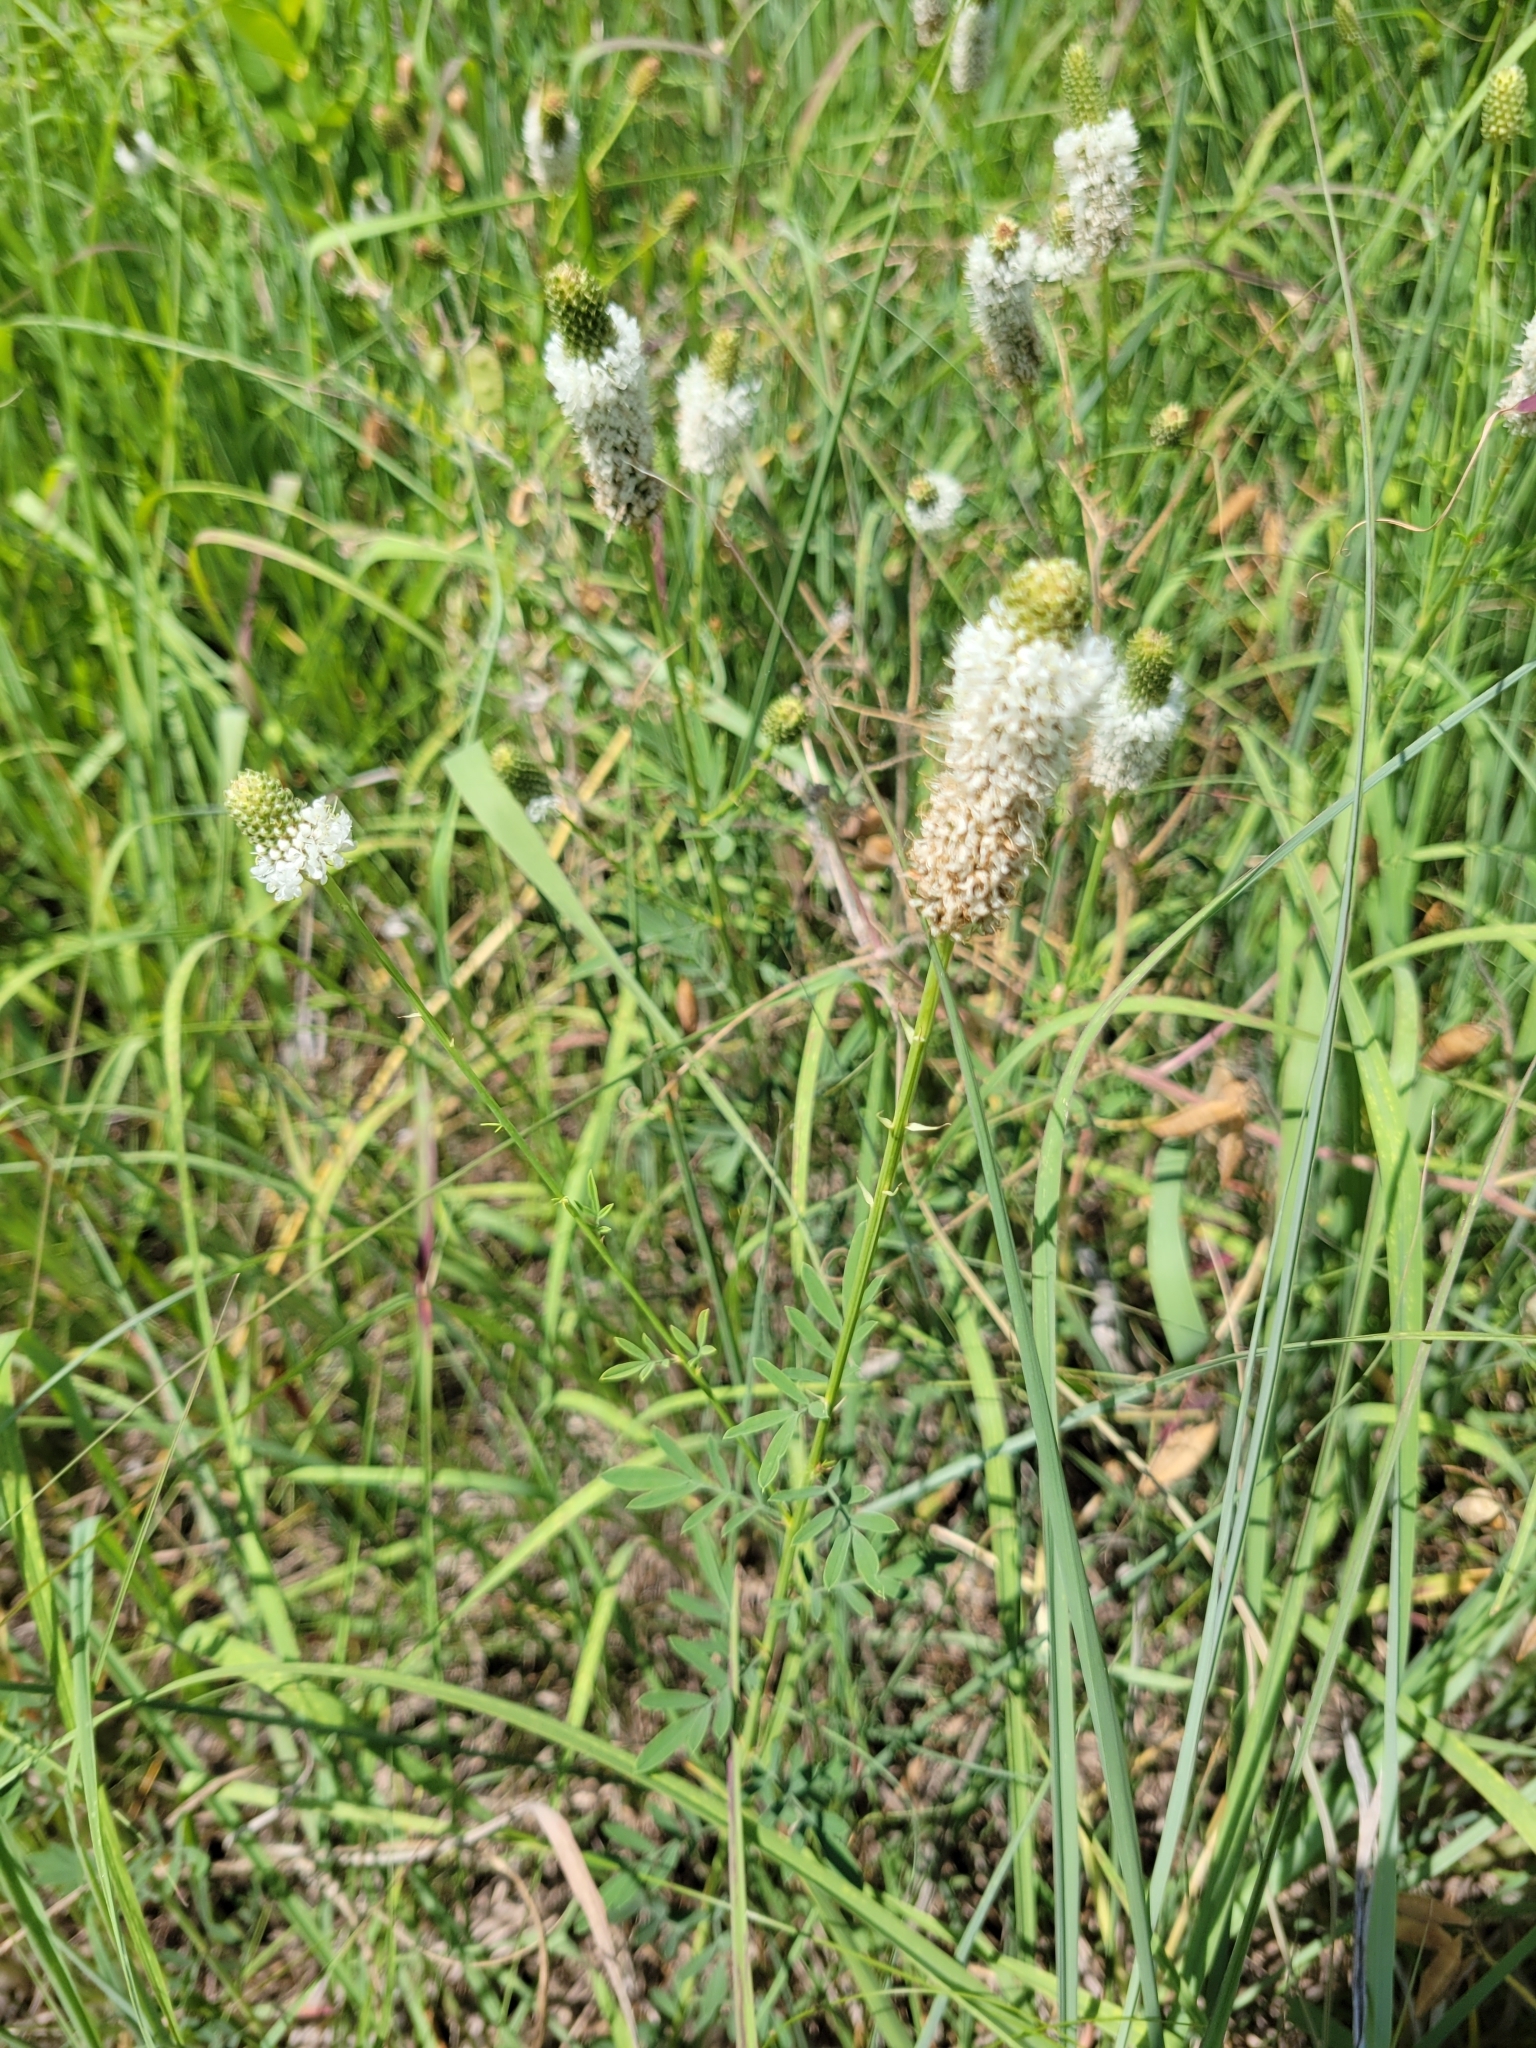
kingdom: Plantae
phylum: Tracheophyta
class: Magnoliopsida
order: Fabales
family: Fabaceae
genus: Dalea
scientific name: Dalea candida
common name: White prairie-clover
